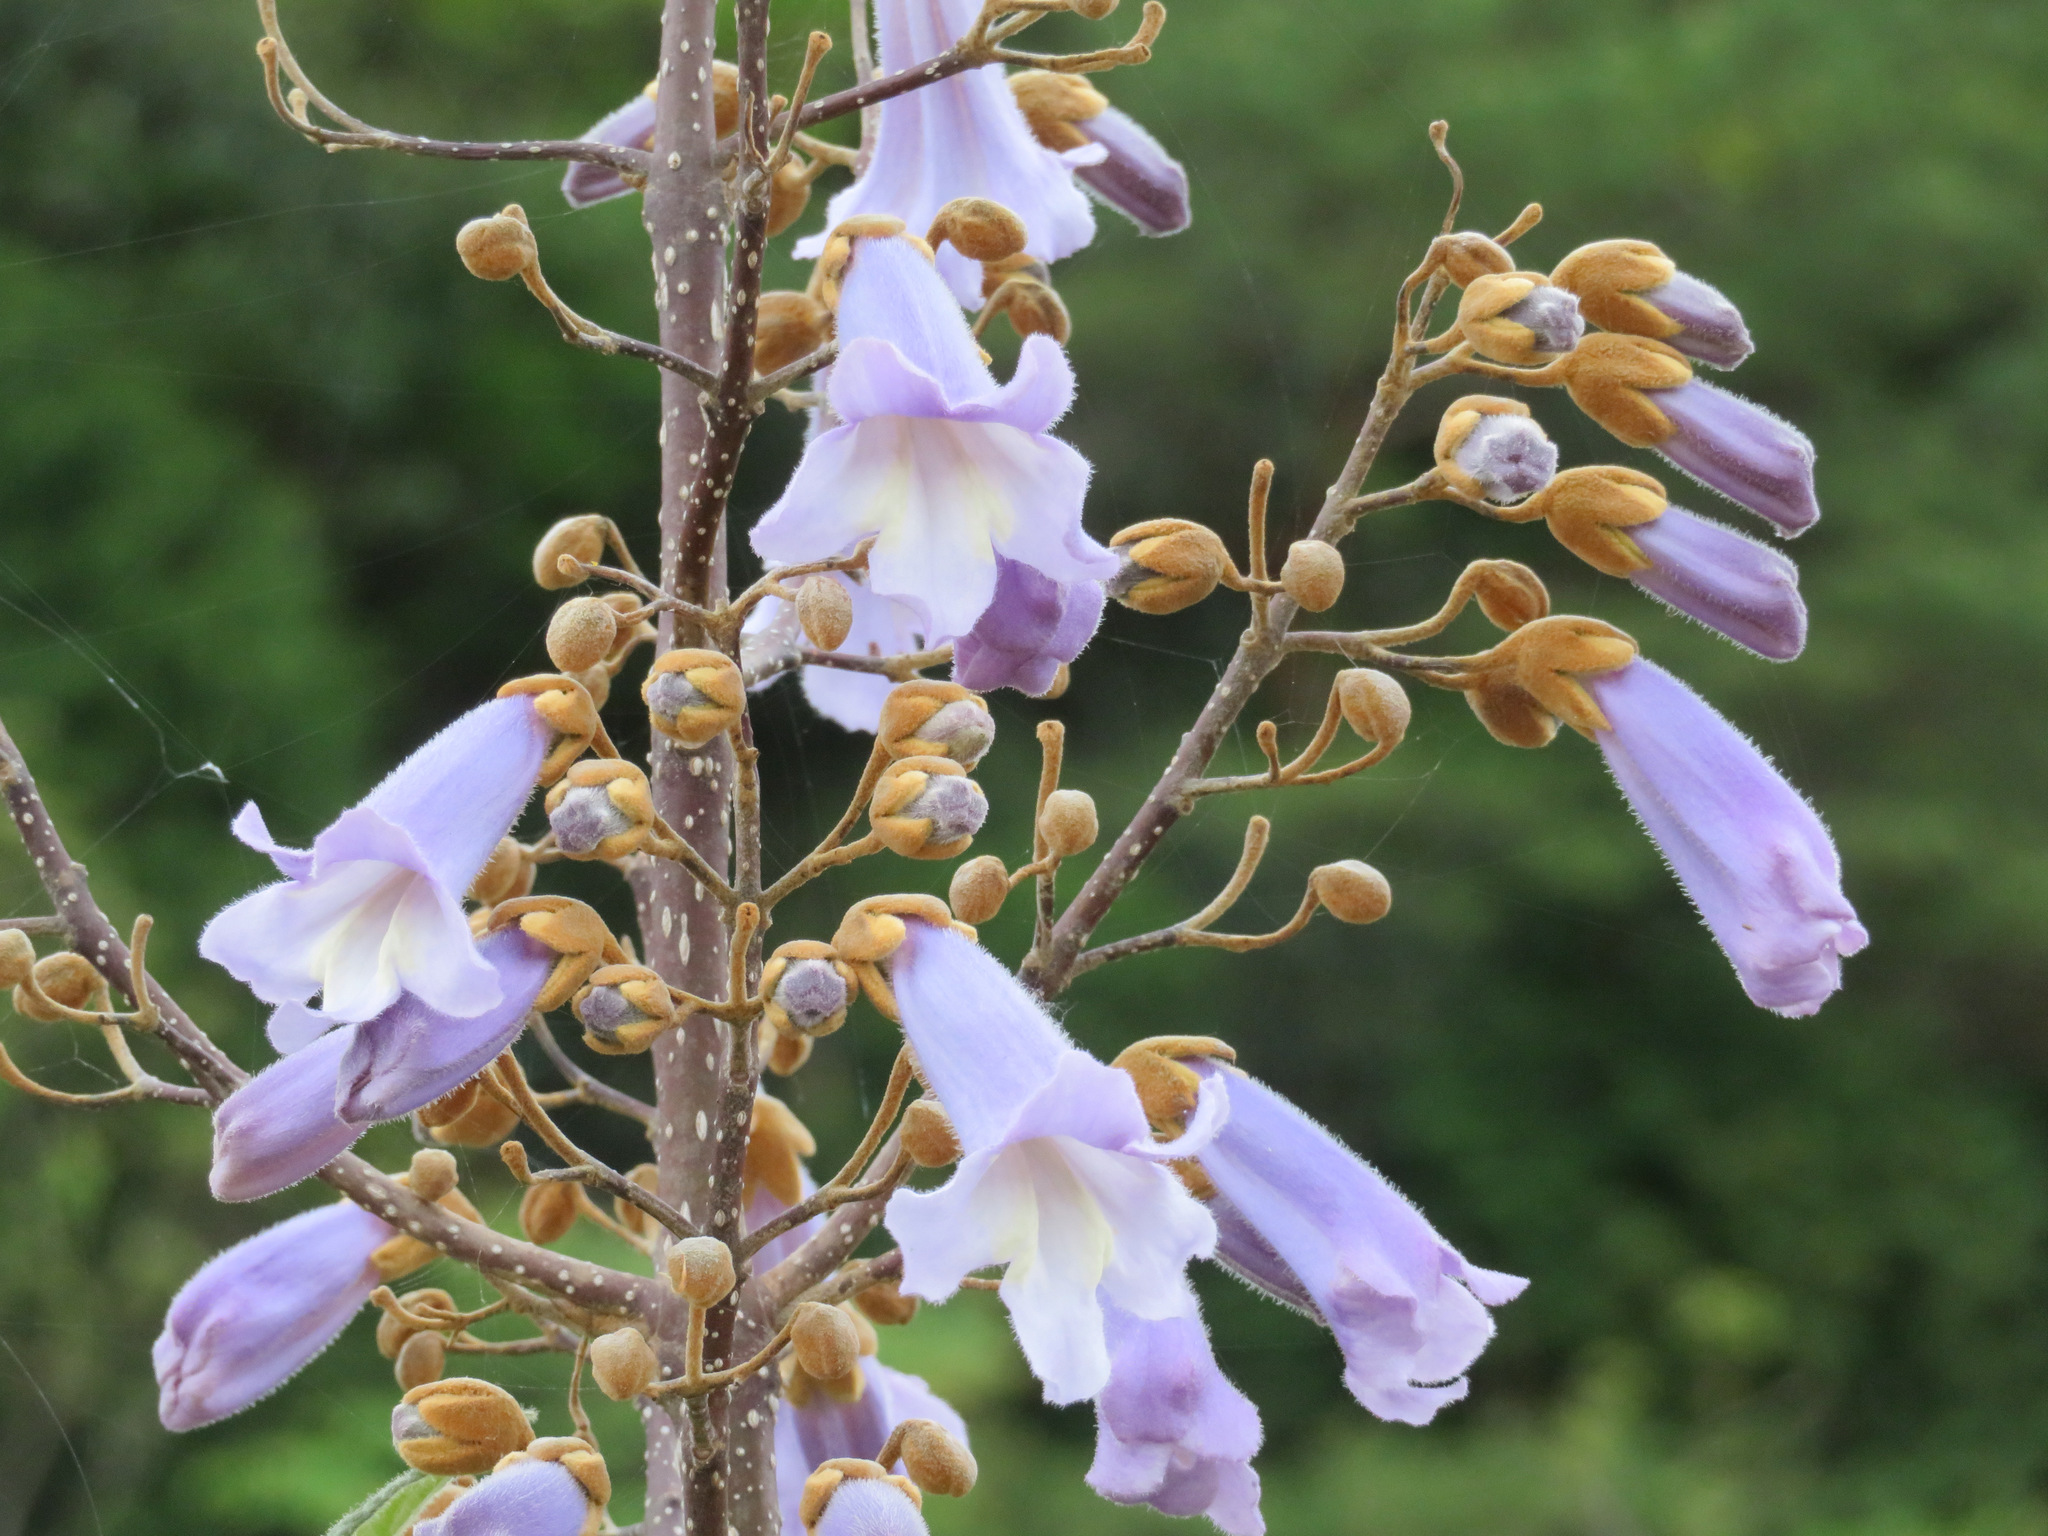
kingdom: Plantae
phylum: Tracheophyta
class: Magnoliopsida
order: Lamiales
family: Paulowniaceae
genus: Paulownia
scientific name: Paulownia tomentosa
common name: Foxglove-tree
